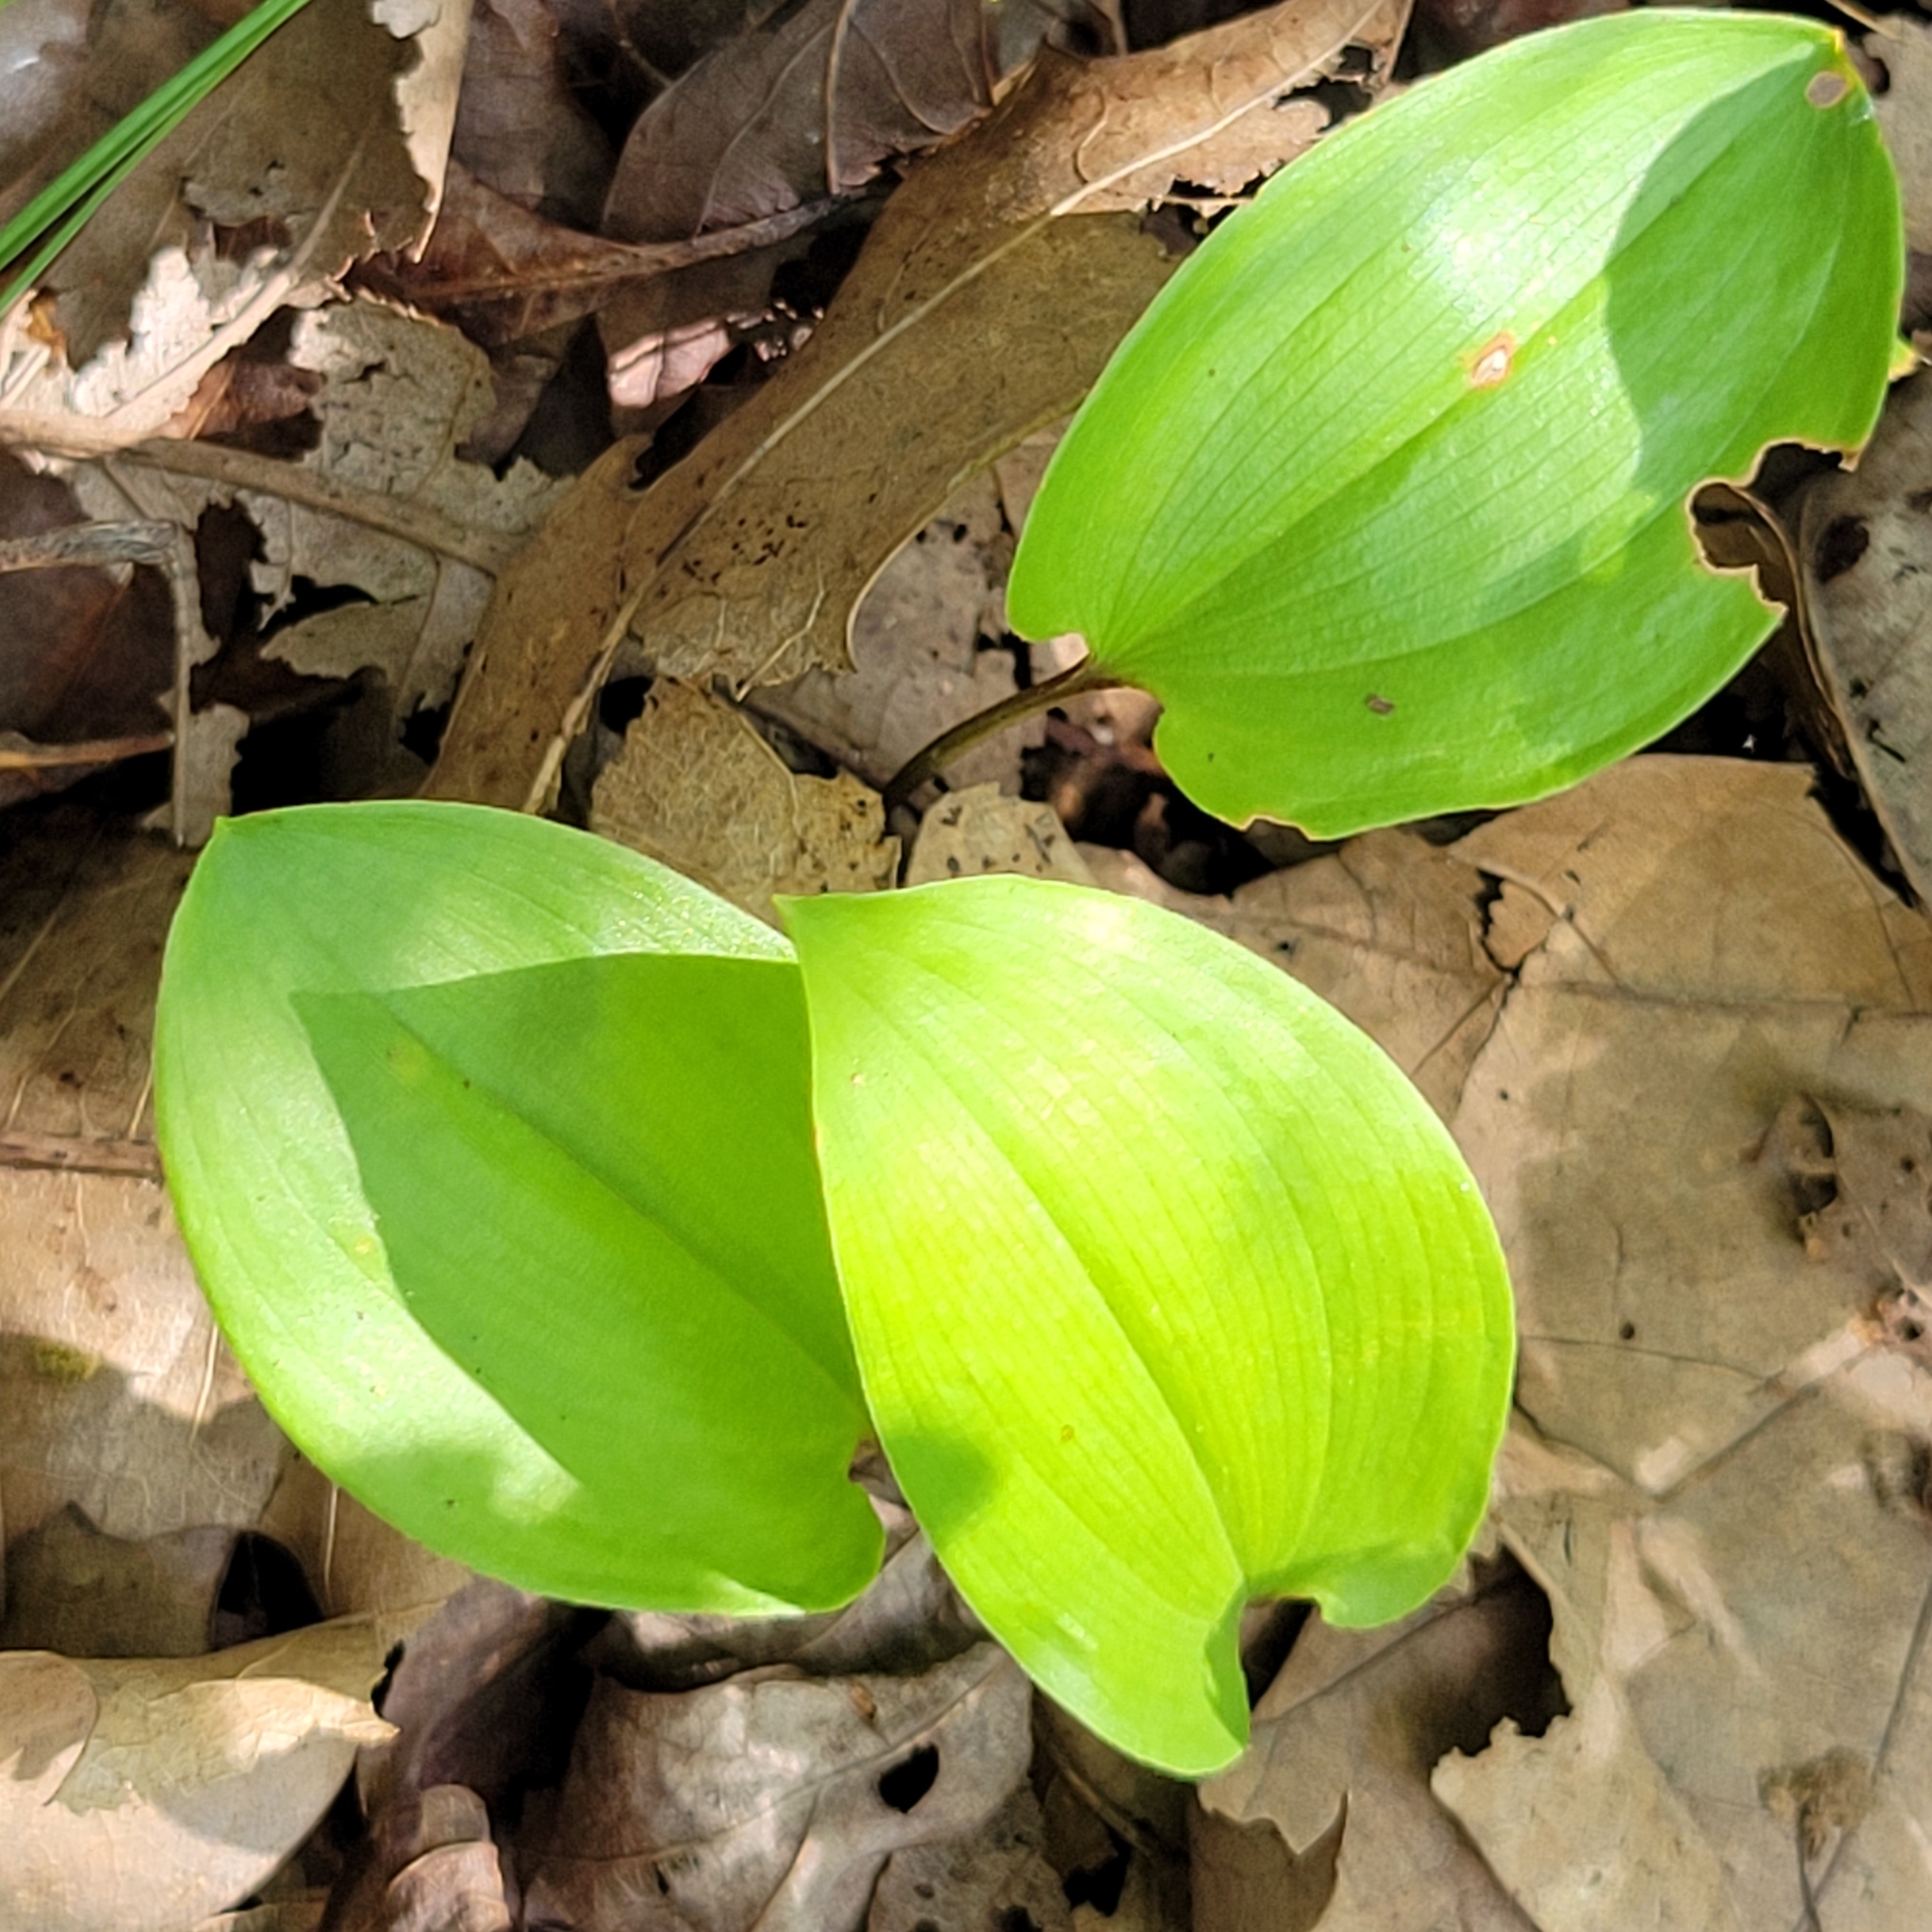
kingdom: Plantae
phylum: Tracheophyta
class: Liliopsida
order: Asparagales
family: Asparagaceae
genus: Maianthemum
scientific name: Maianthemum canadense
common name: False lily-of-the-valley
